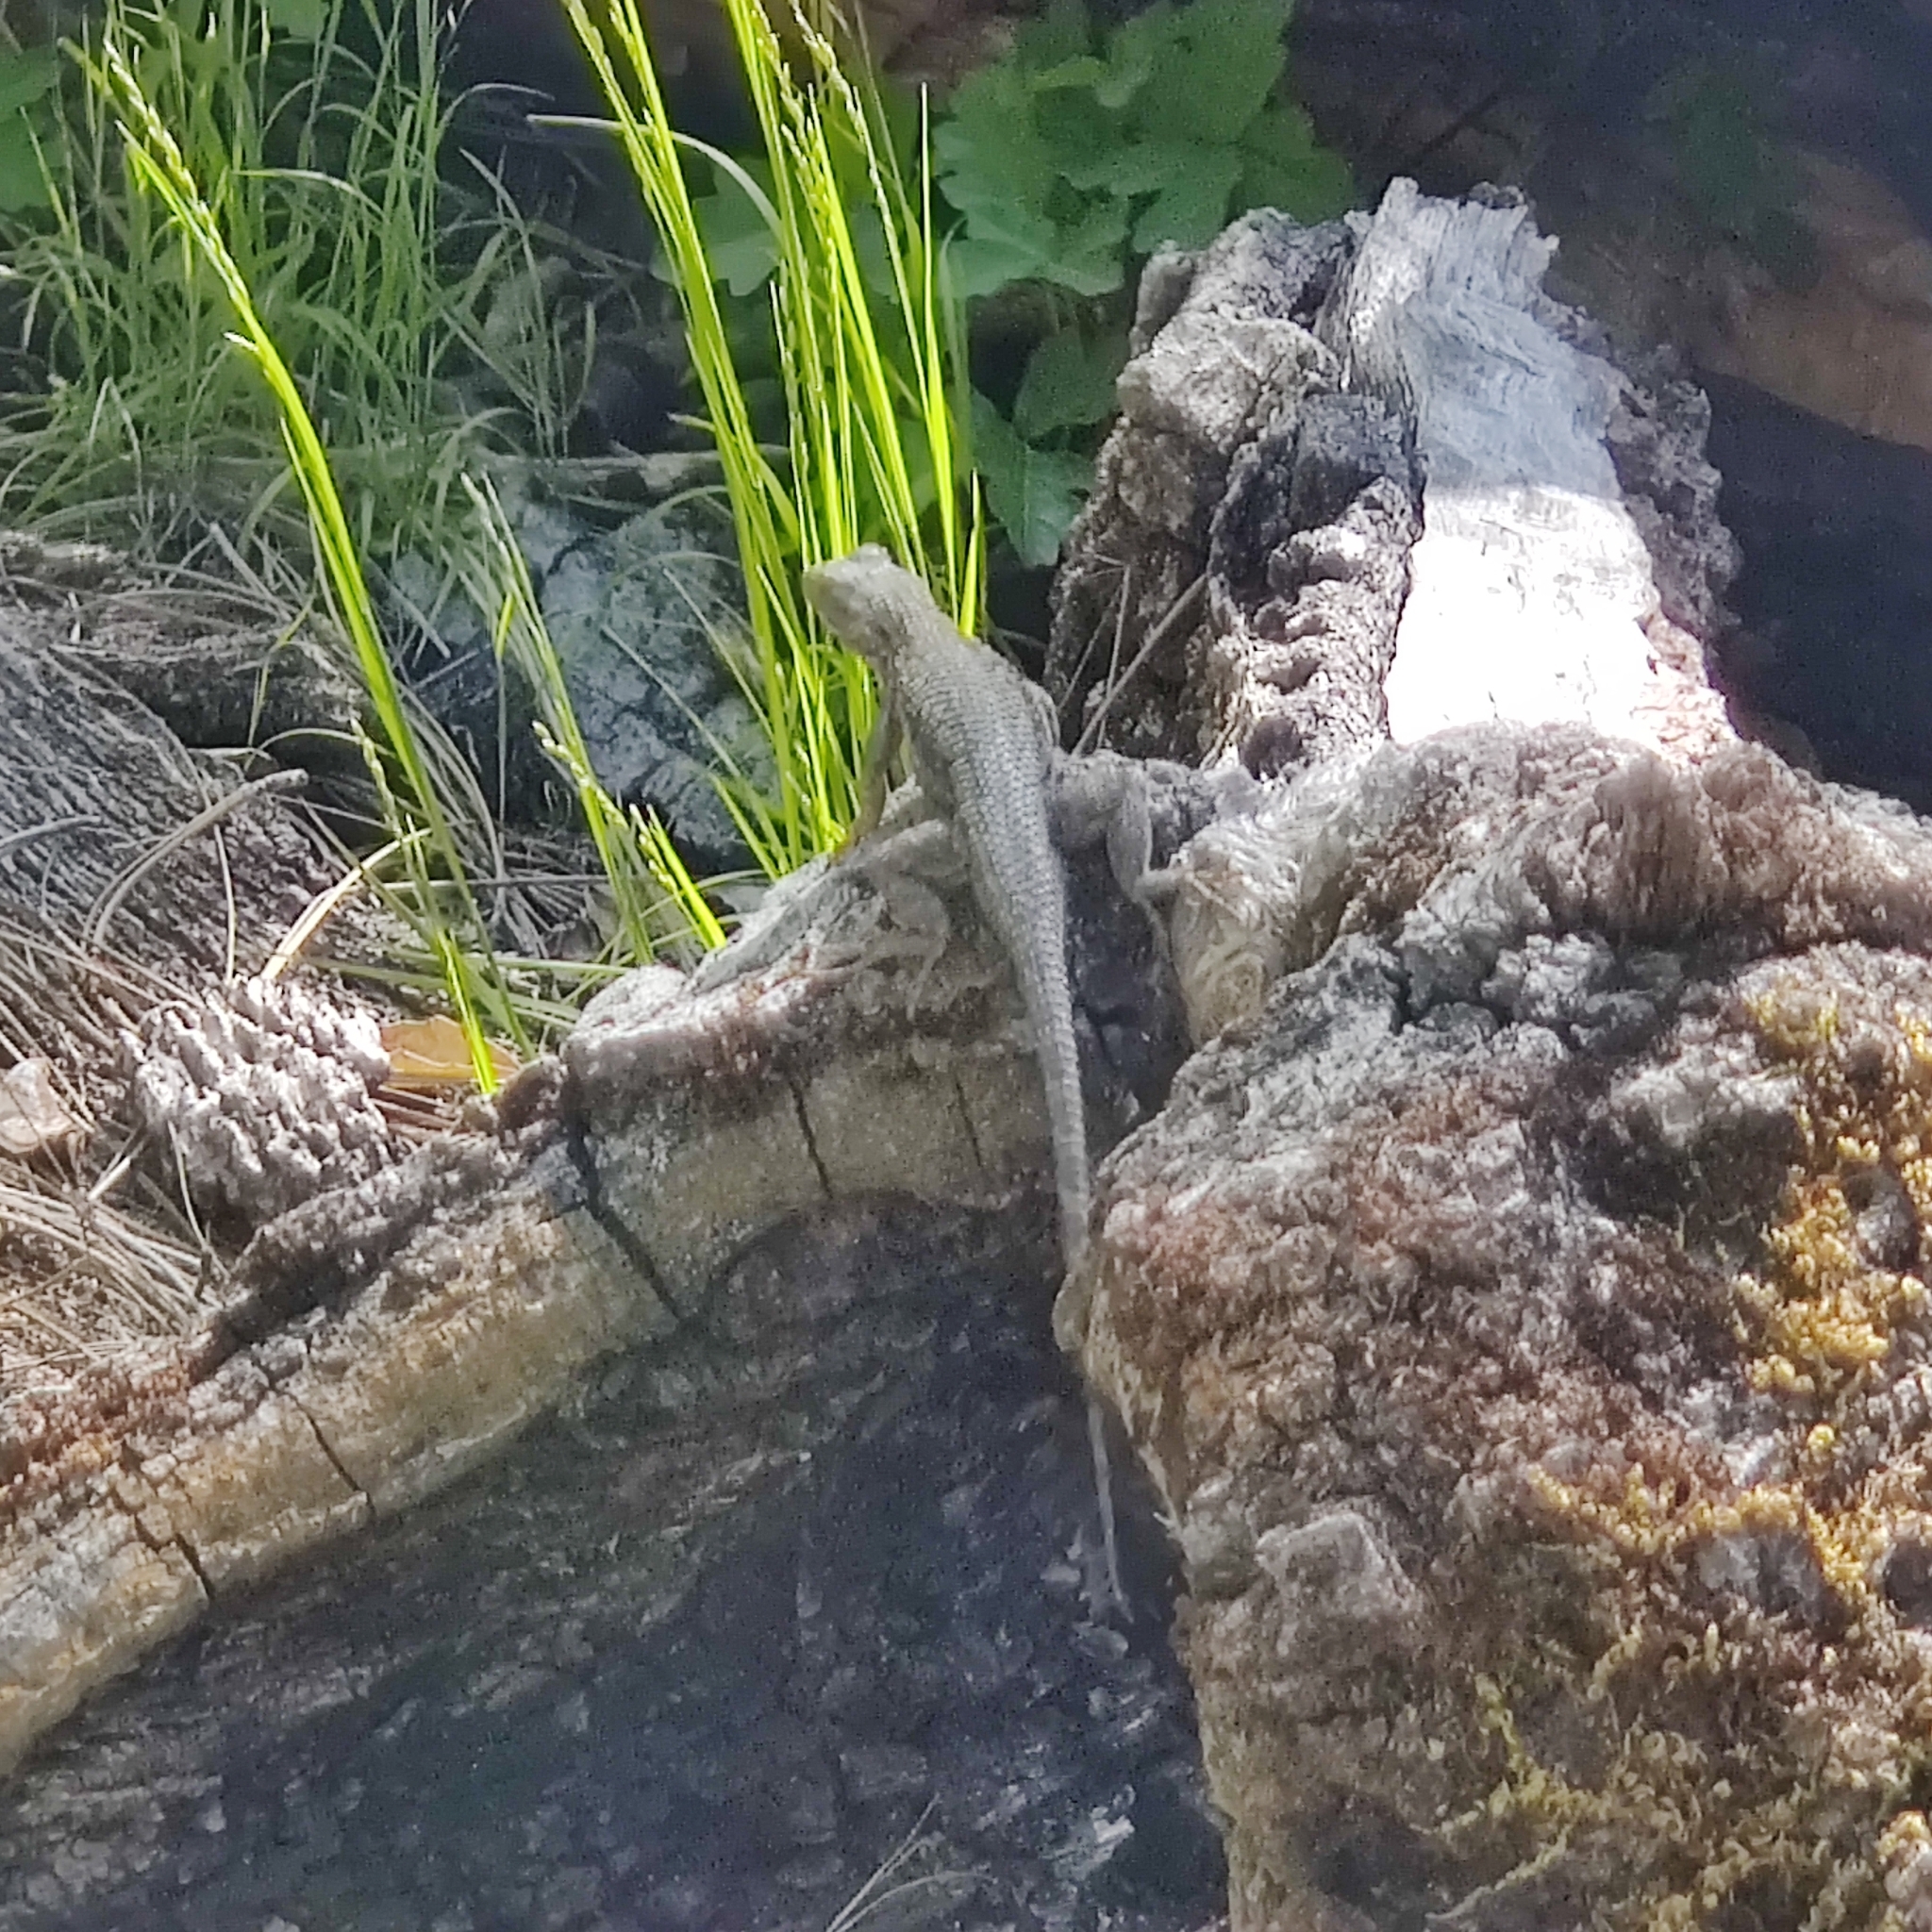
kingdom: Animalia
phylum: Chordata
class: Squamata
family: Phrynosomatidae
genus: Sceloporus
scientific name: Sceloporus occidentalis
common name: Western fence lizard
